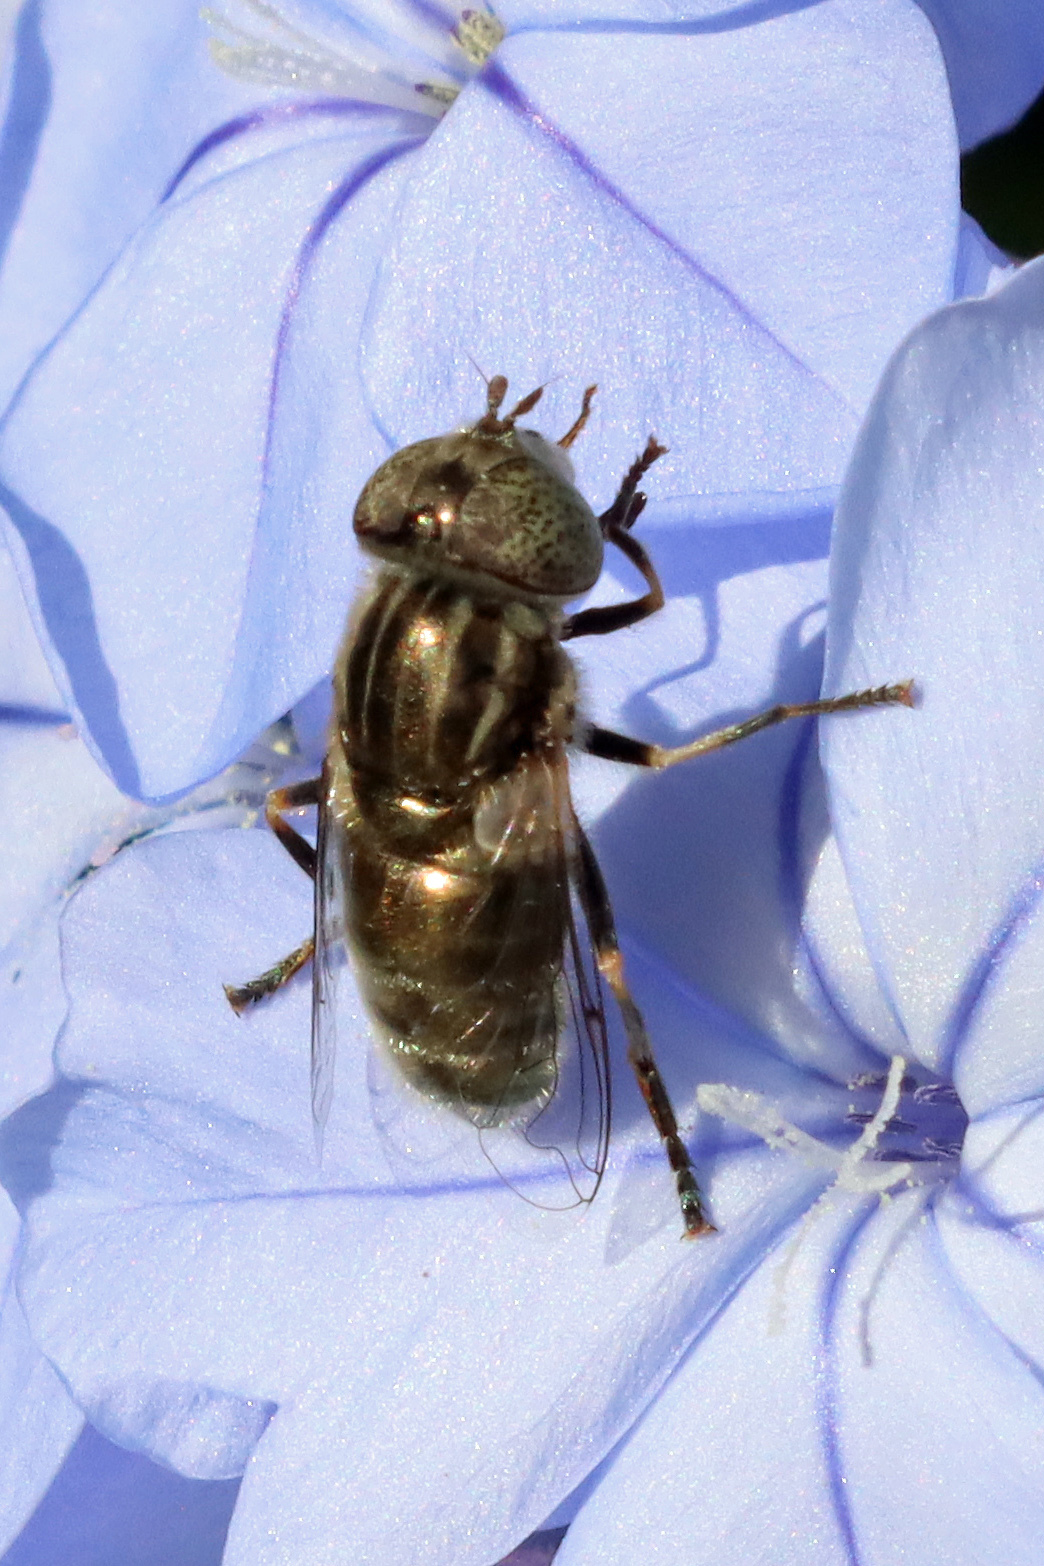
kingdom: Animalia
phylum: Arthropoda
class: Insecta
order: Diptera
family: Syrphidae
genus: Eristalinus
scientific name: Eristalinus aeneus
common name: Syrphid fly
